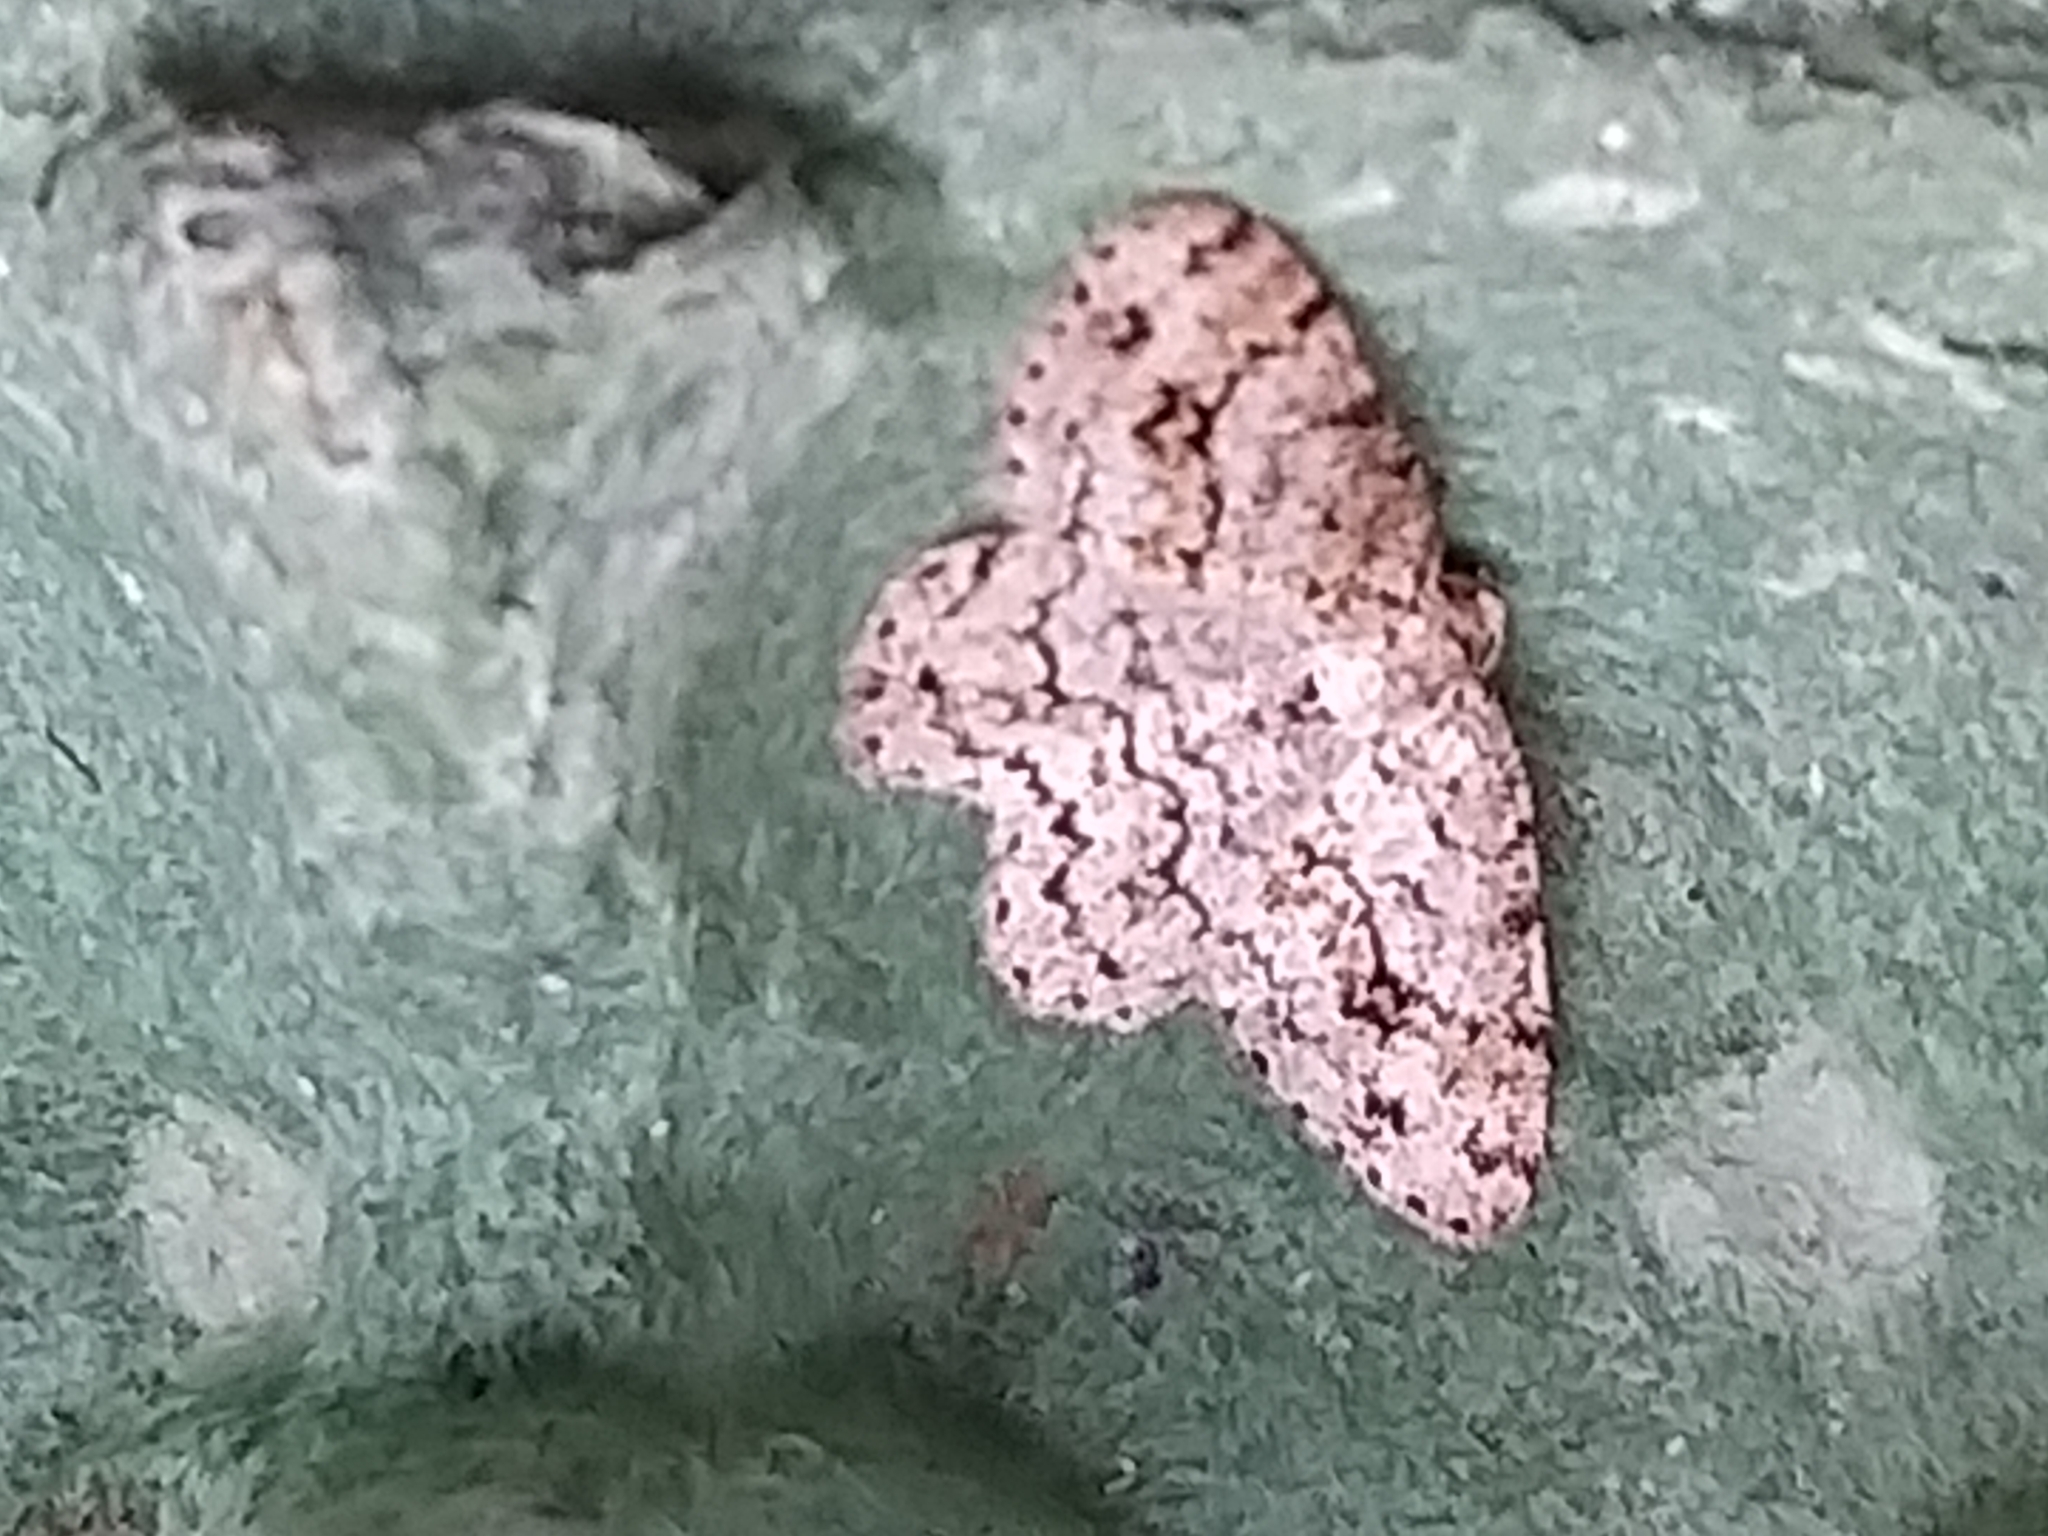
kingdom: Animalia
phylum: Arthropoda
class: Insecta
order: Lepidoptera
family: Geometridae
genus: Ectropis
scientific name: Ectropis crepuscularia
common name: Engrailed
